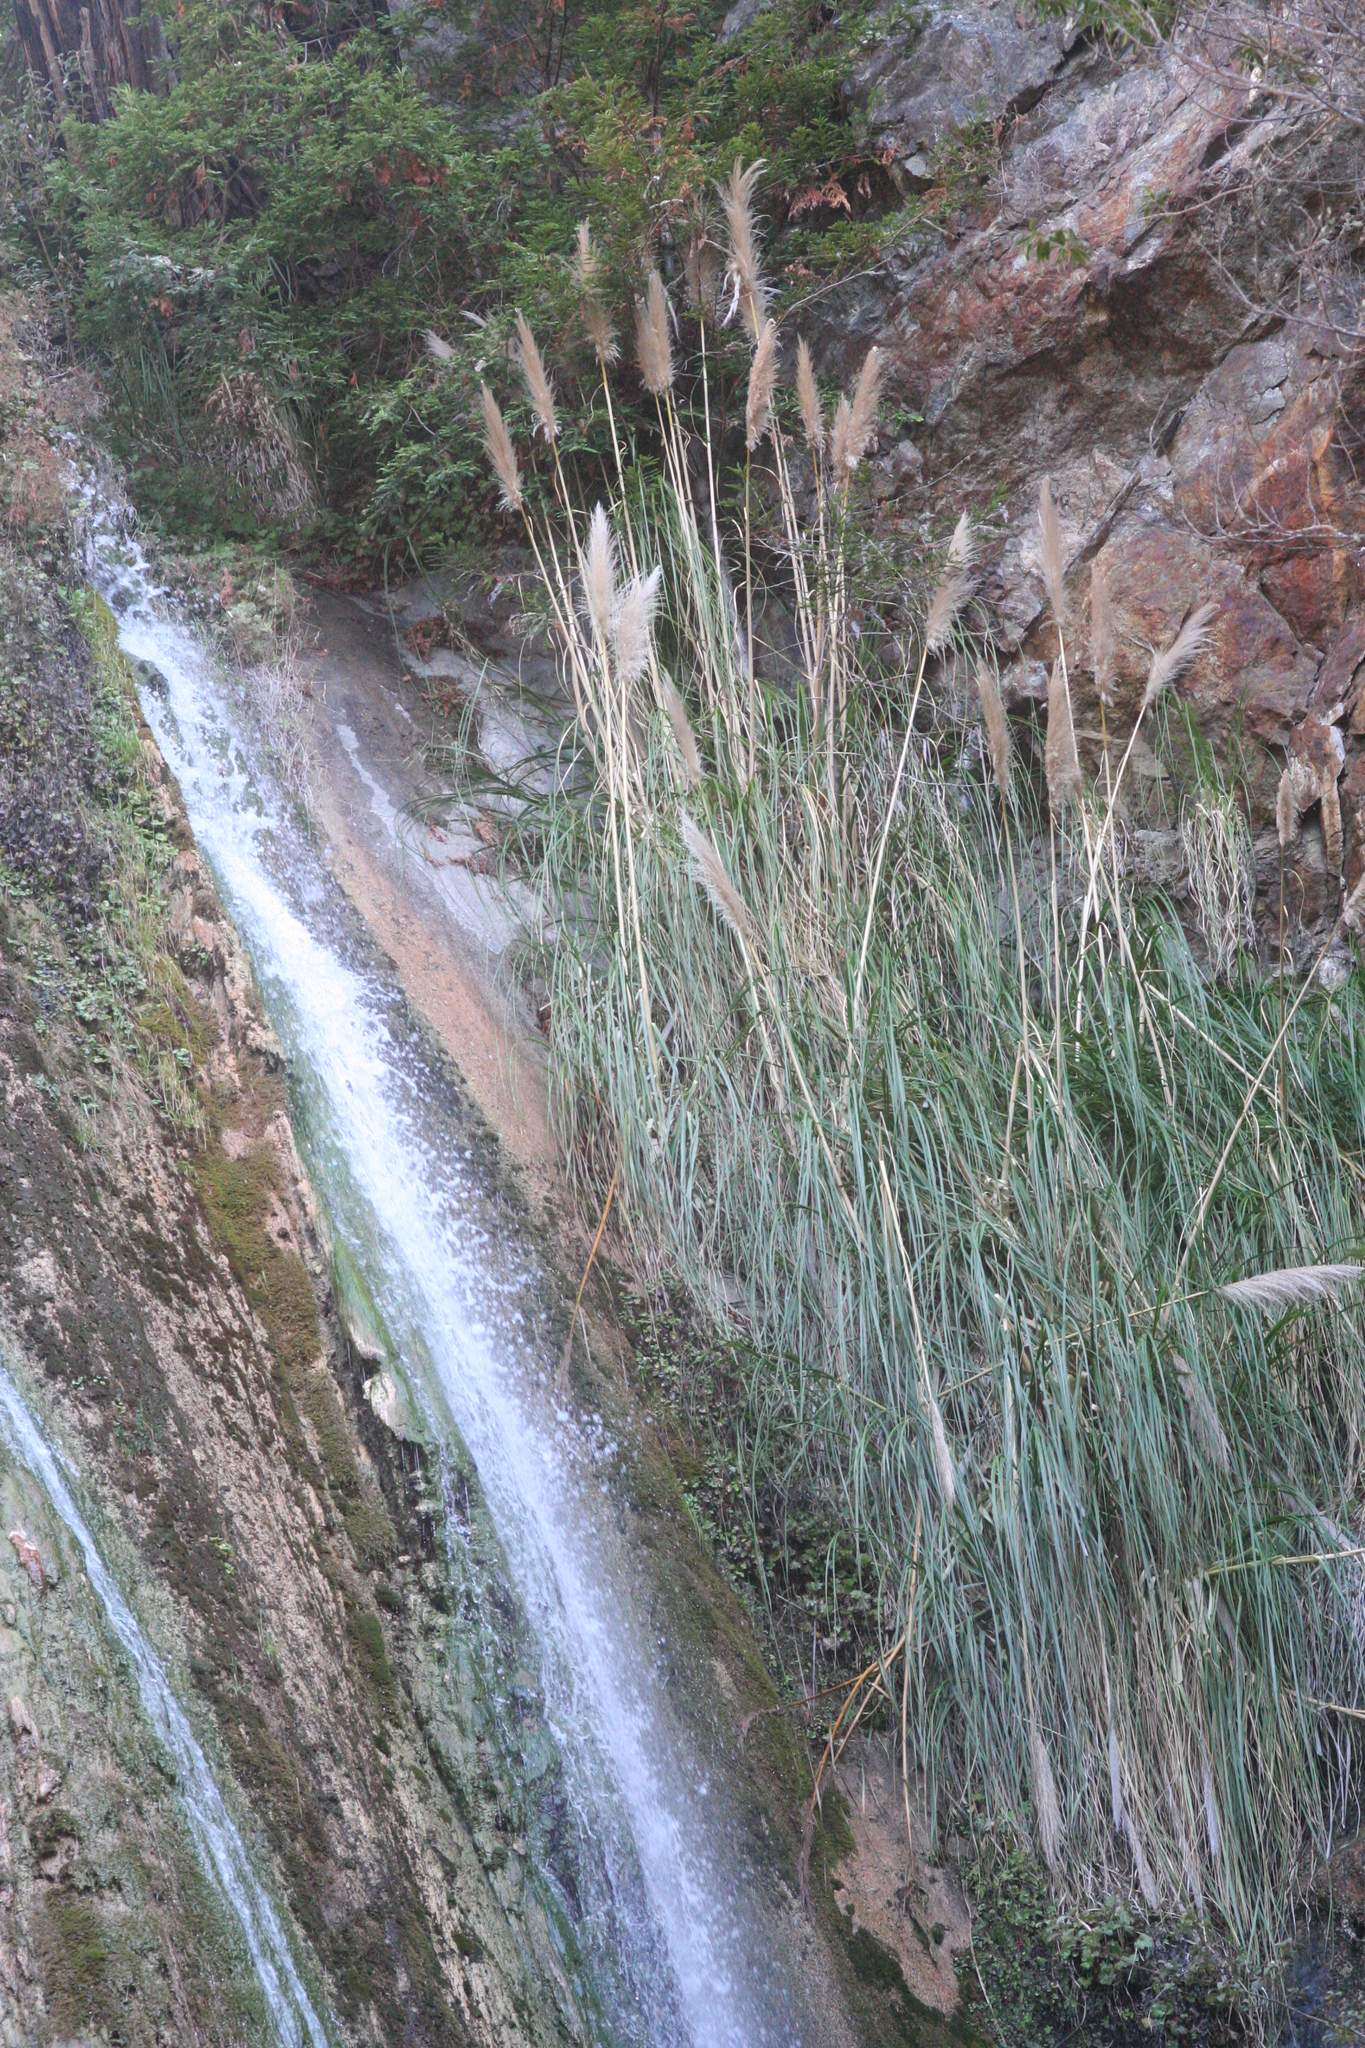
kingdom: Plantae
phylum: Tracheophyta
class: Liliopsida
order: Poales
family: Poaceae
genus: Cortaderia
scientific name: Cortaderia jubata
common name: Purple pampas grass
